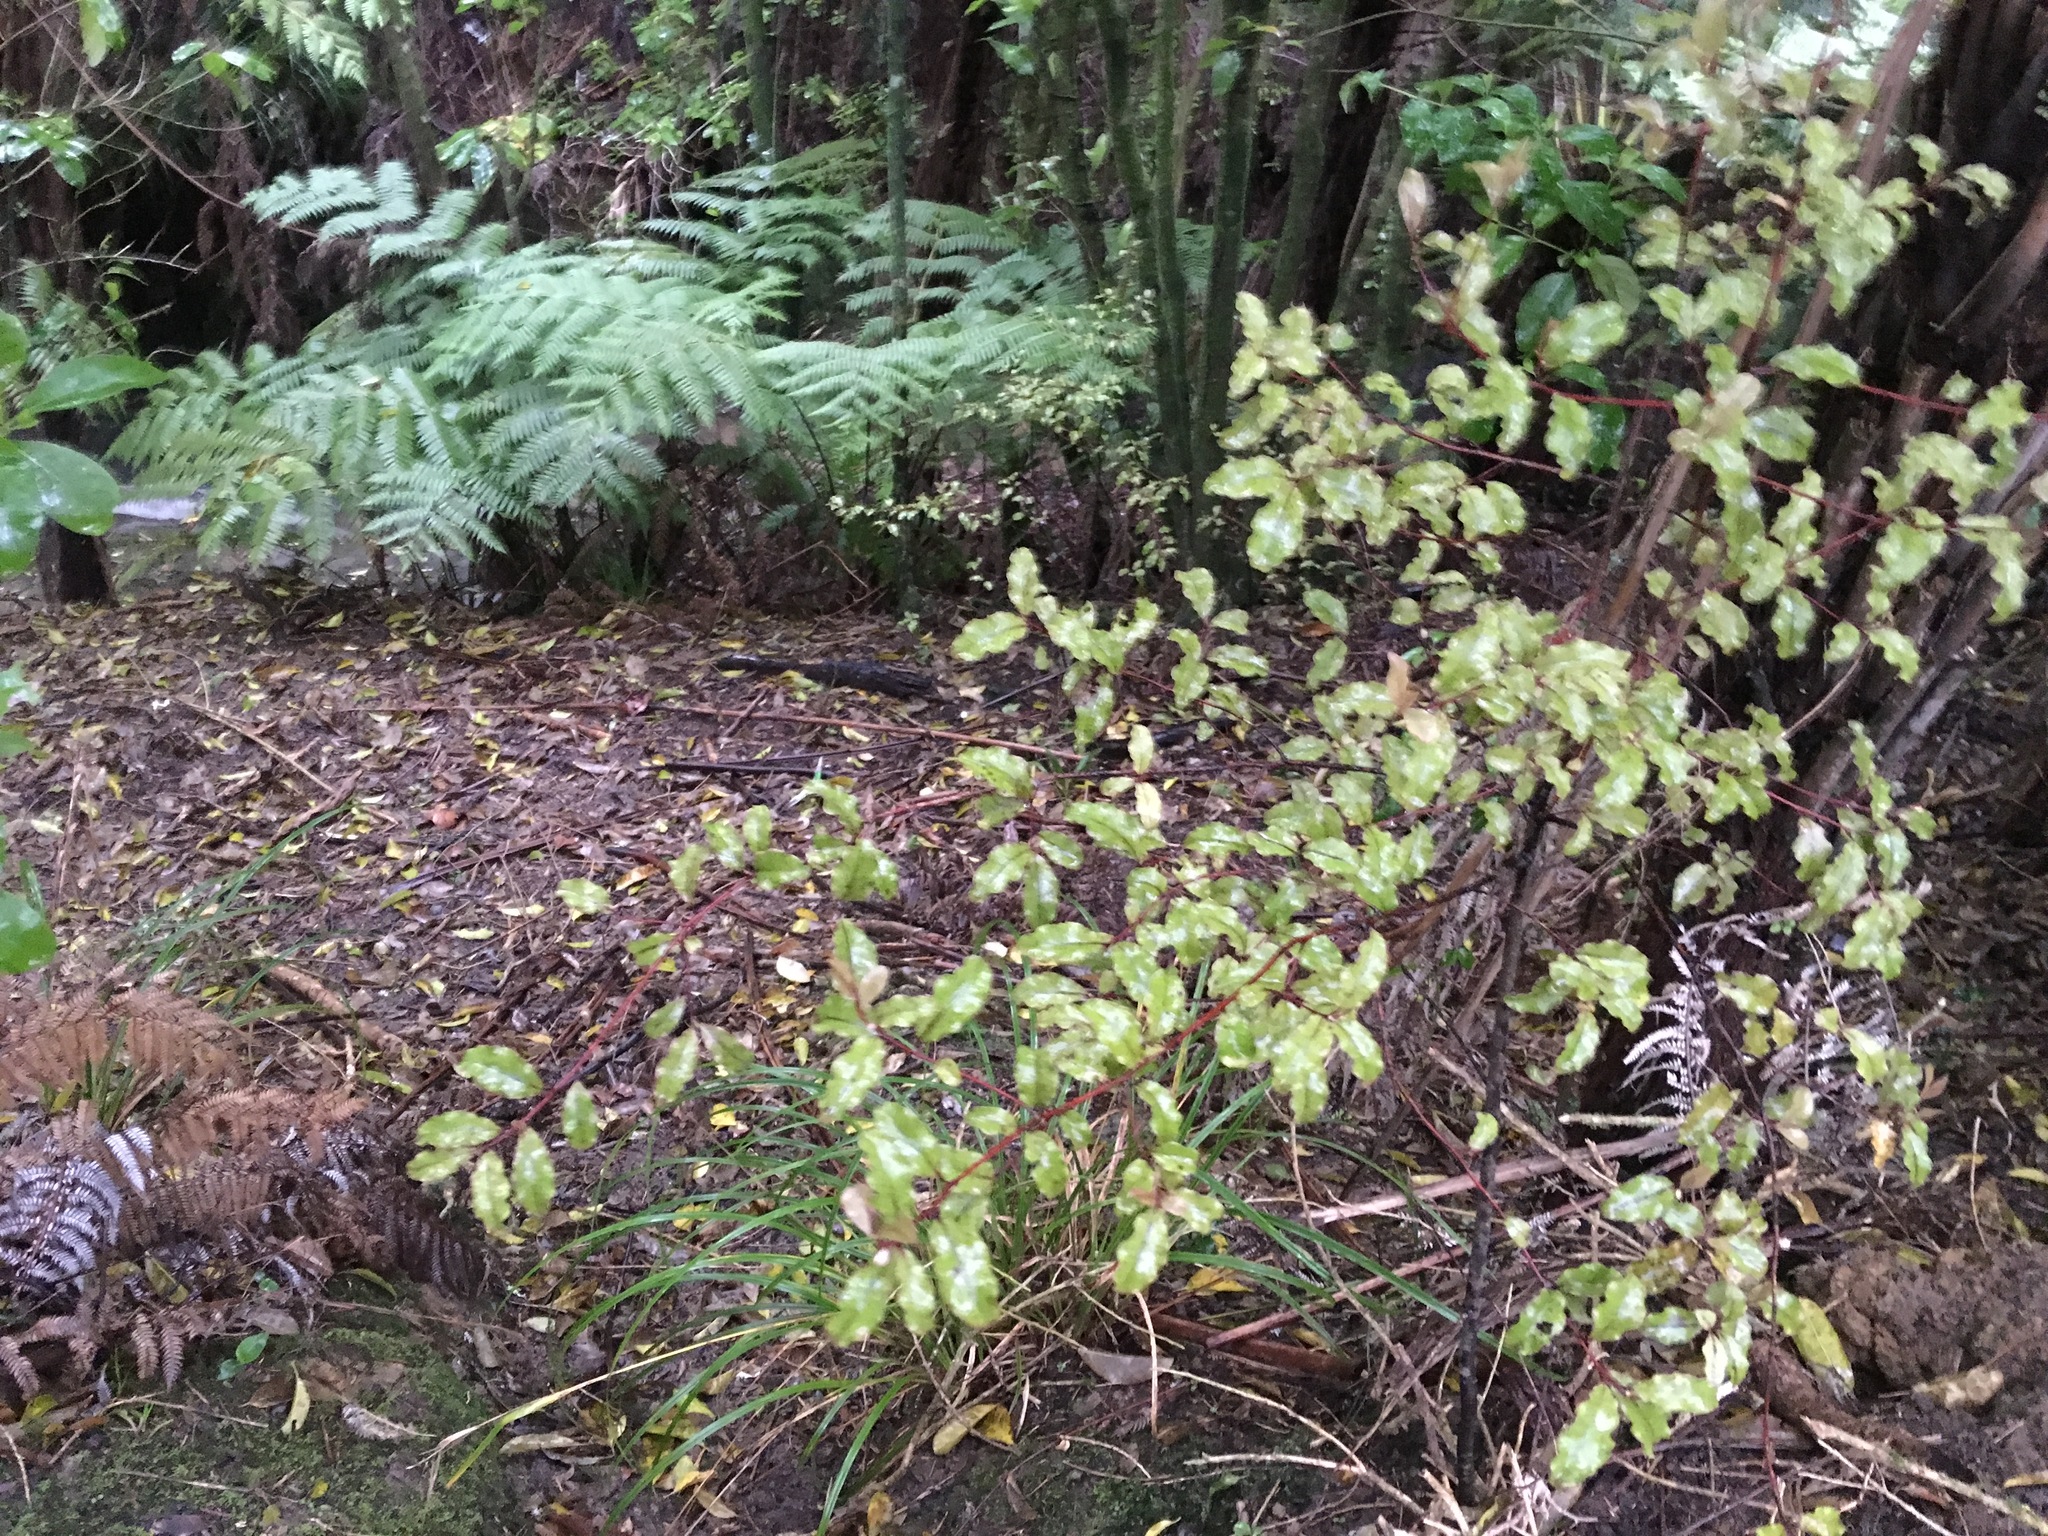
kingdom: Plantae
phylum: Tracheophyta
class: Magnoliopsida
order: Ericales
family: Primulaceae
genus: Myrsine
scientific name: Myrsine australis
